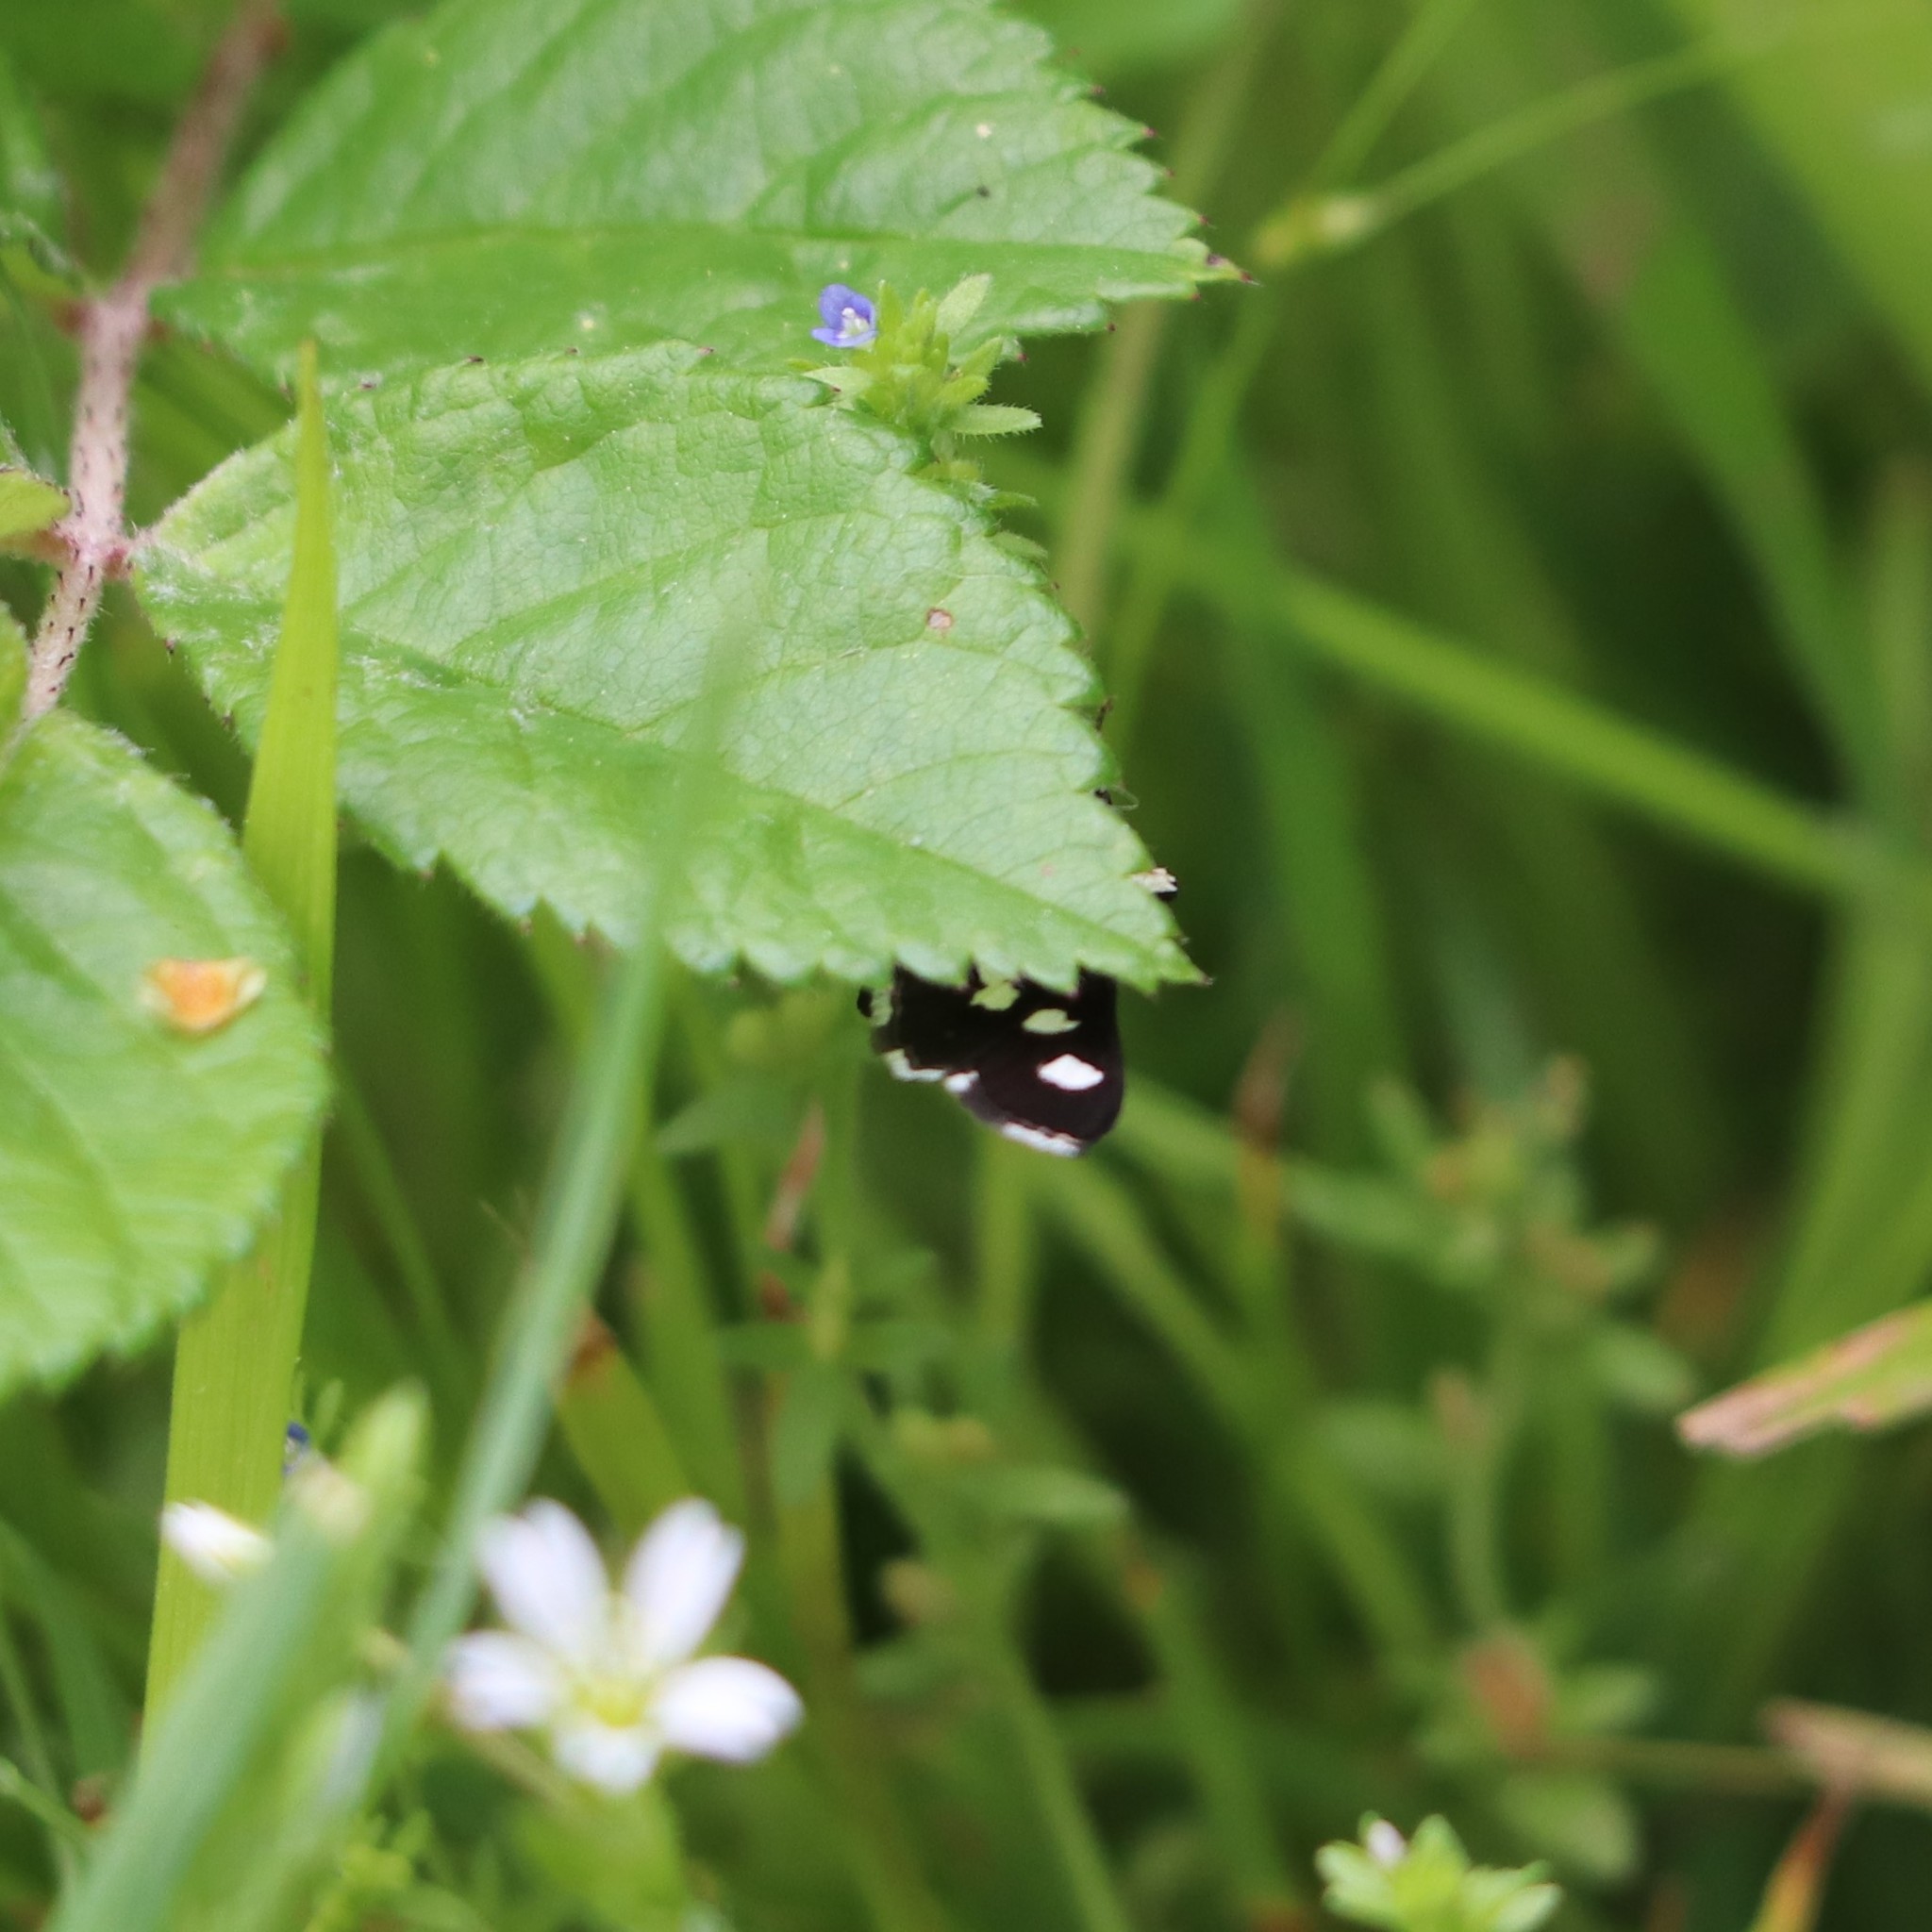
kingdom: Animalia
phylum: Arthropoda
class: Insecta
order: Lepidoptera
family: Crambidae
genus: Desmia
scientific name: Desmia
